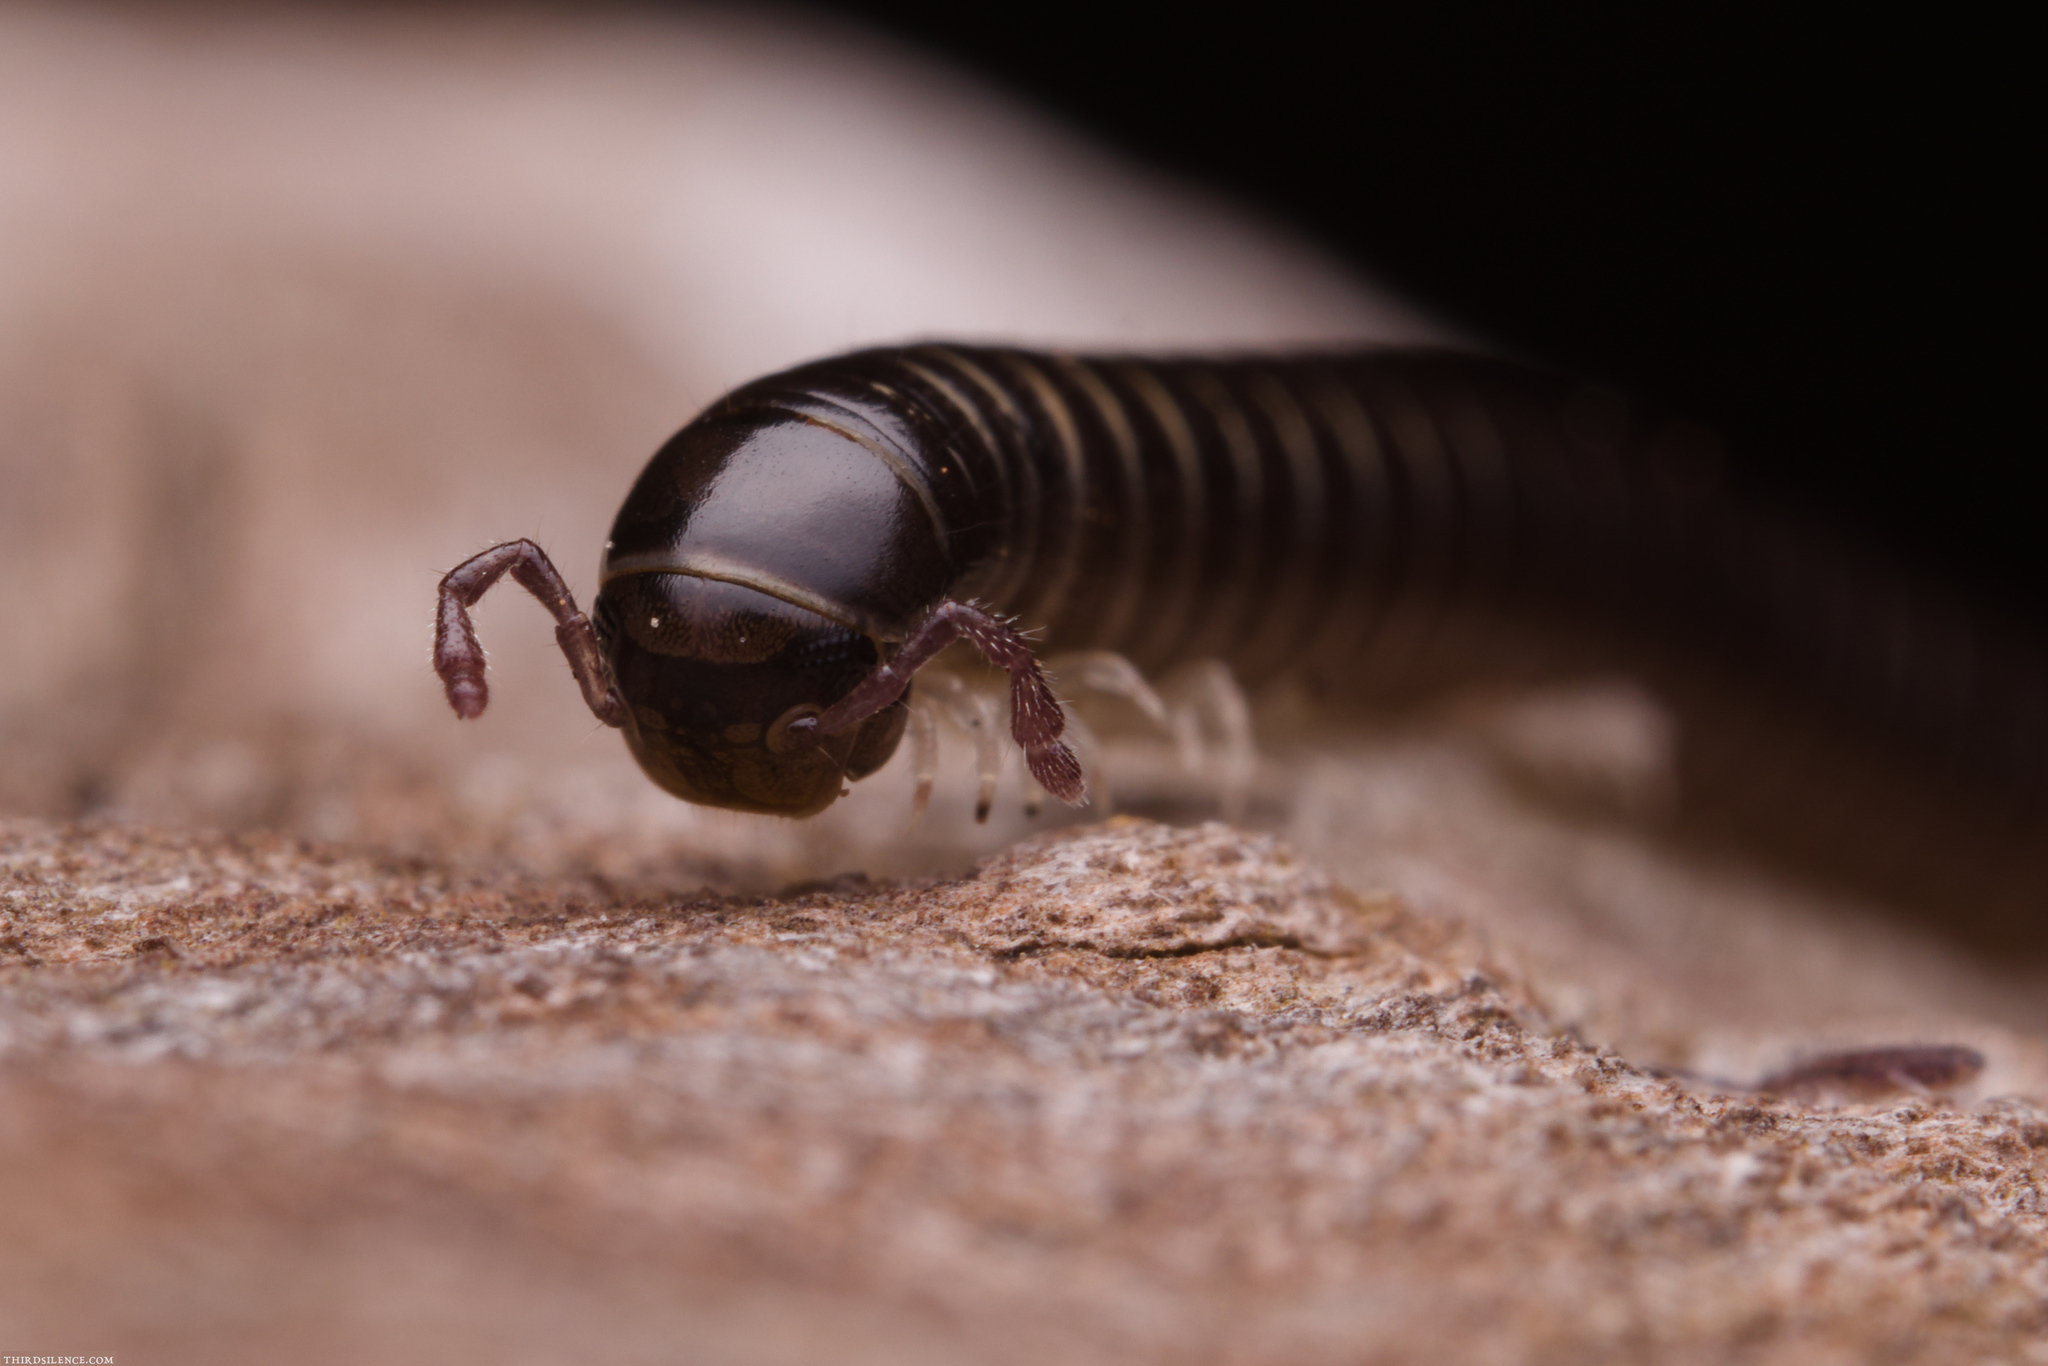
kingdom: Animalia
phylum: Arthropoda
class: Diplopoda
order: Julida
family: Julidae
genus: Ommatoiulus
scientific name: Ommatoiulus moreleti
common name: Portuguese millipede
